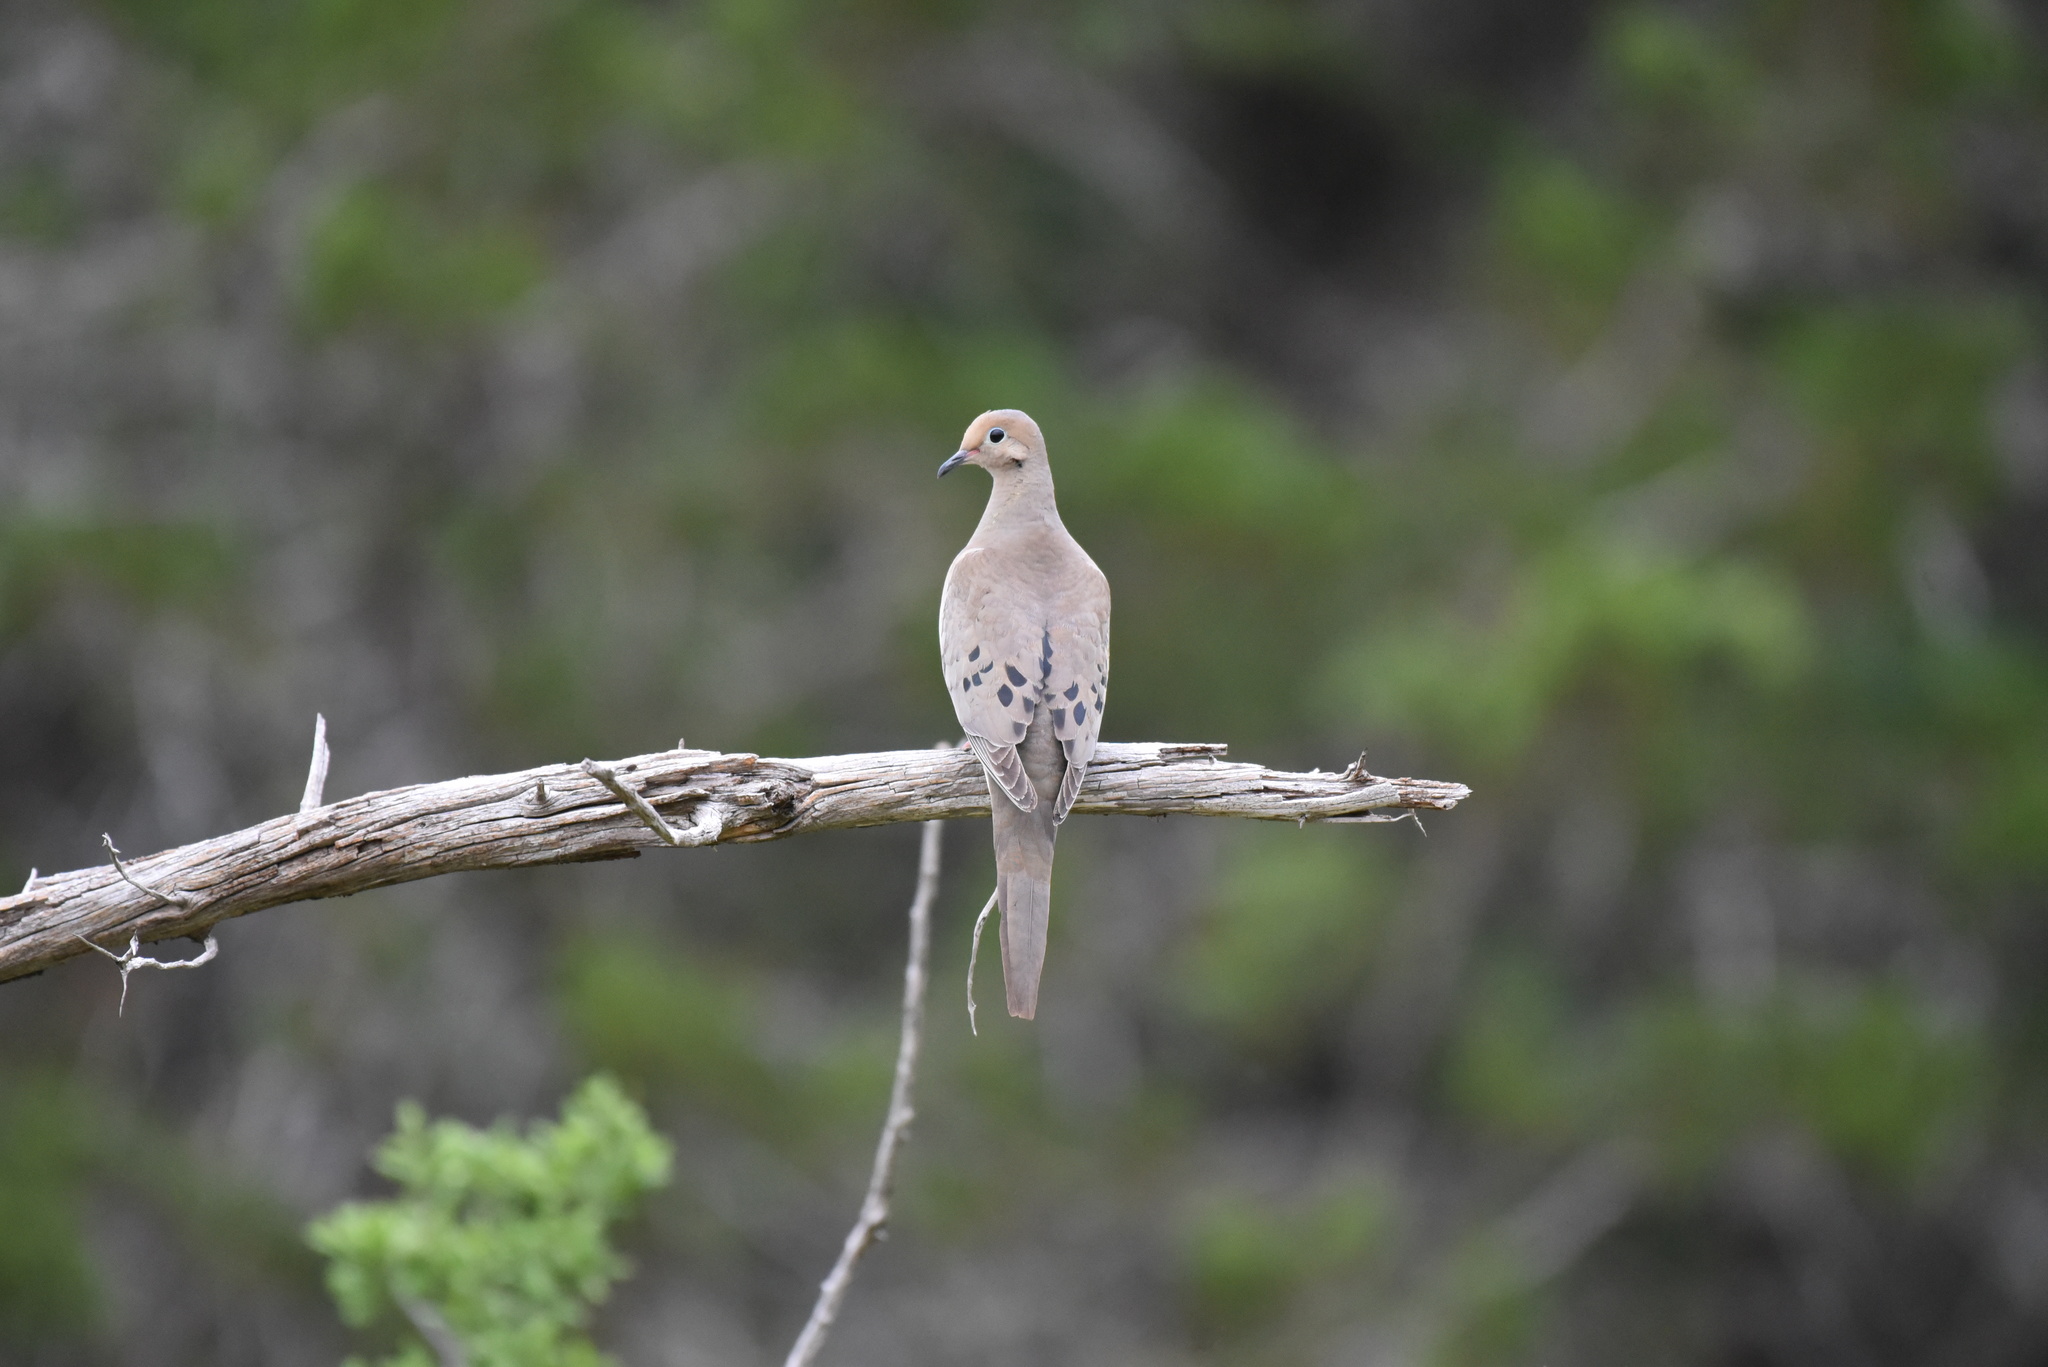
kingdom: Animalia
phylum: Chordata
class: Aves
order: Columbiformes
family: Columbidae
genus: Zenaida
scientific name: Zenaida macroura
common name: Mourning dove
